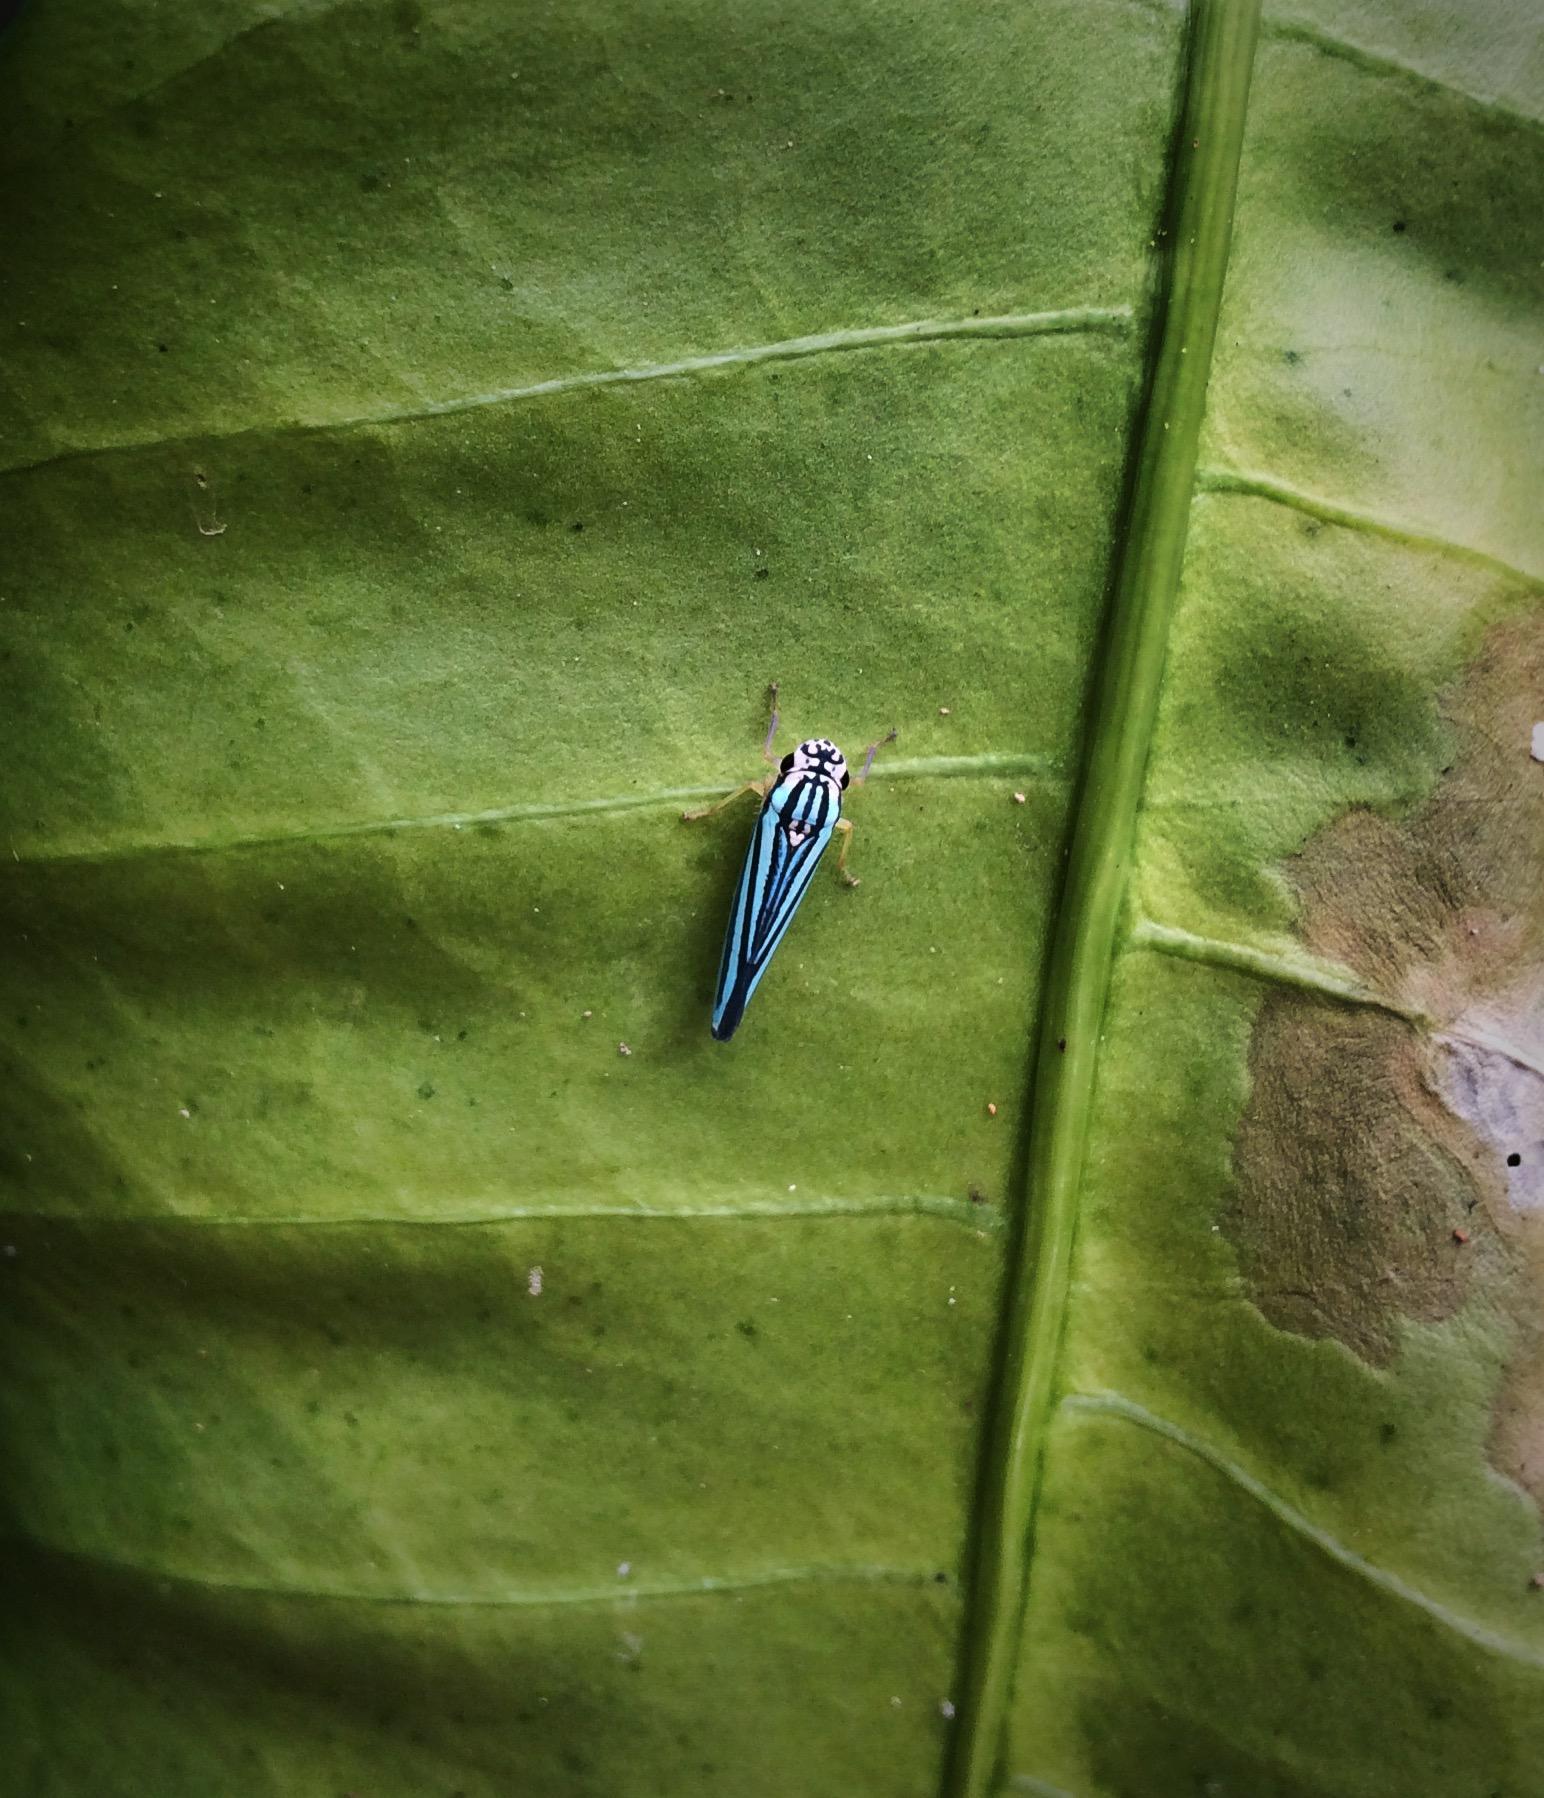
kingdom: Animalia
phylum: Arthropoda
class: Insecta
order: Hemiptera
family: Cicadellidae
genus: Tettigoniella
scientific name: Tettigoniella cosmopolita
